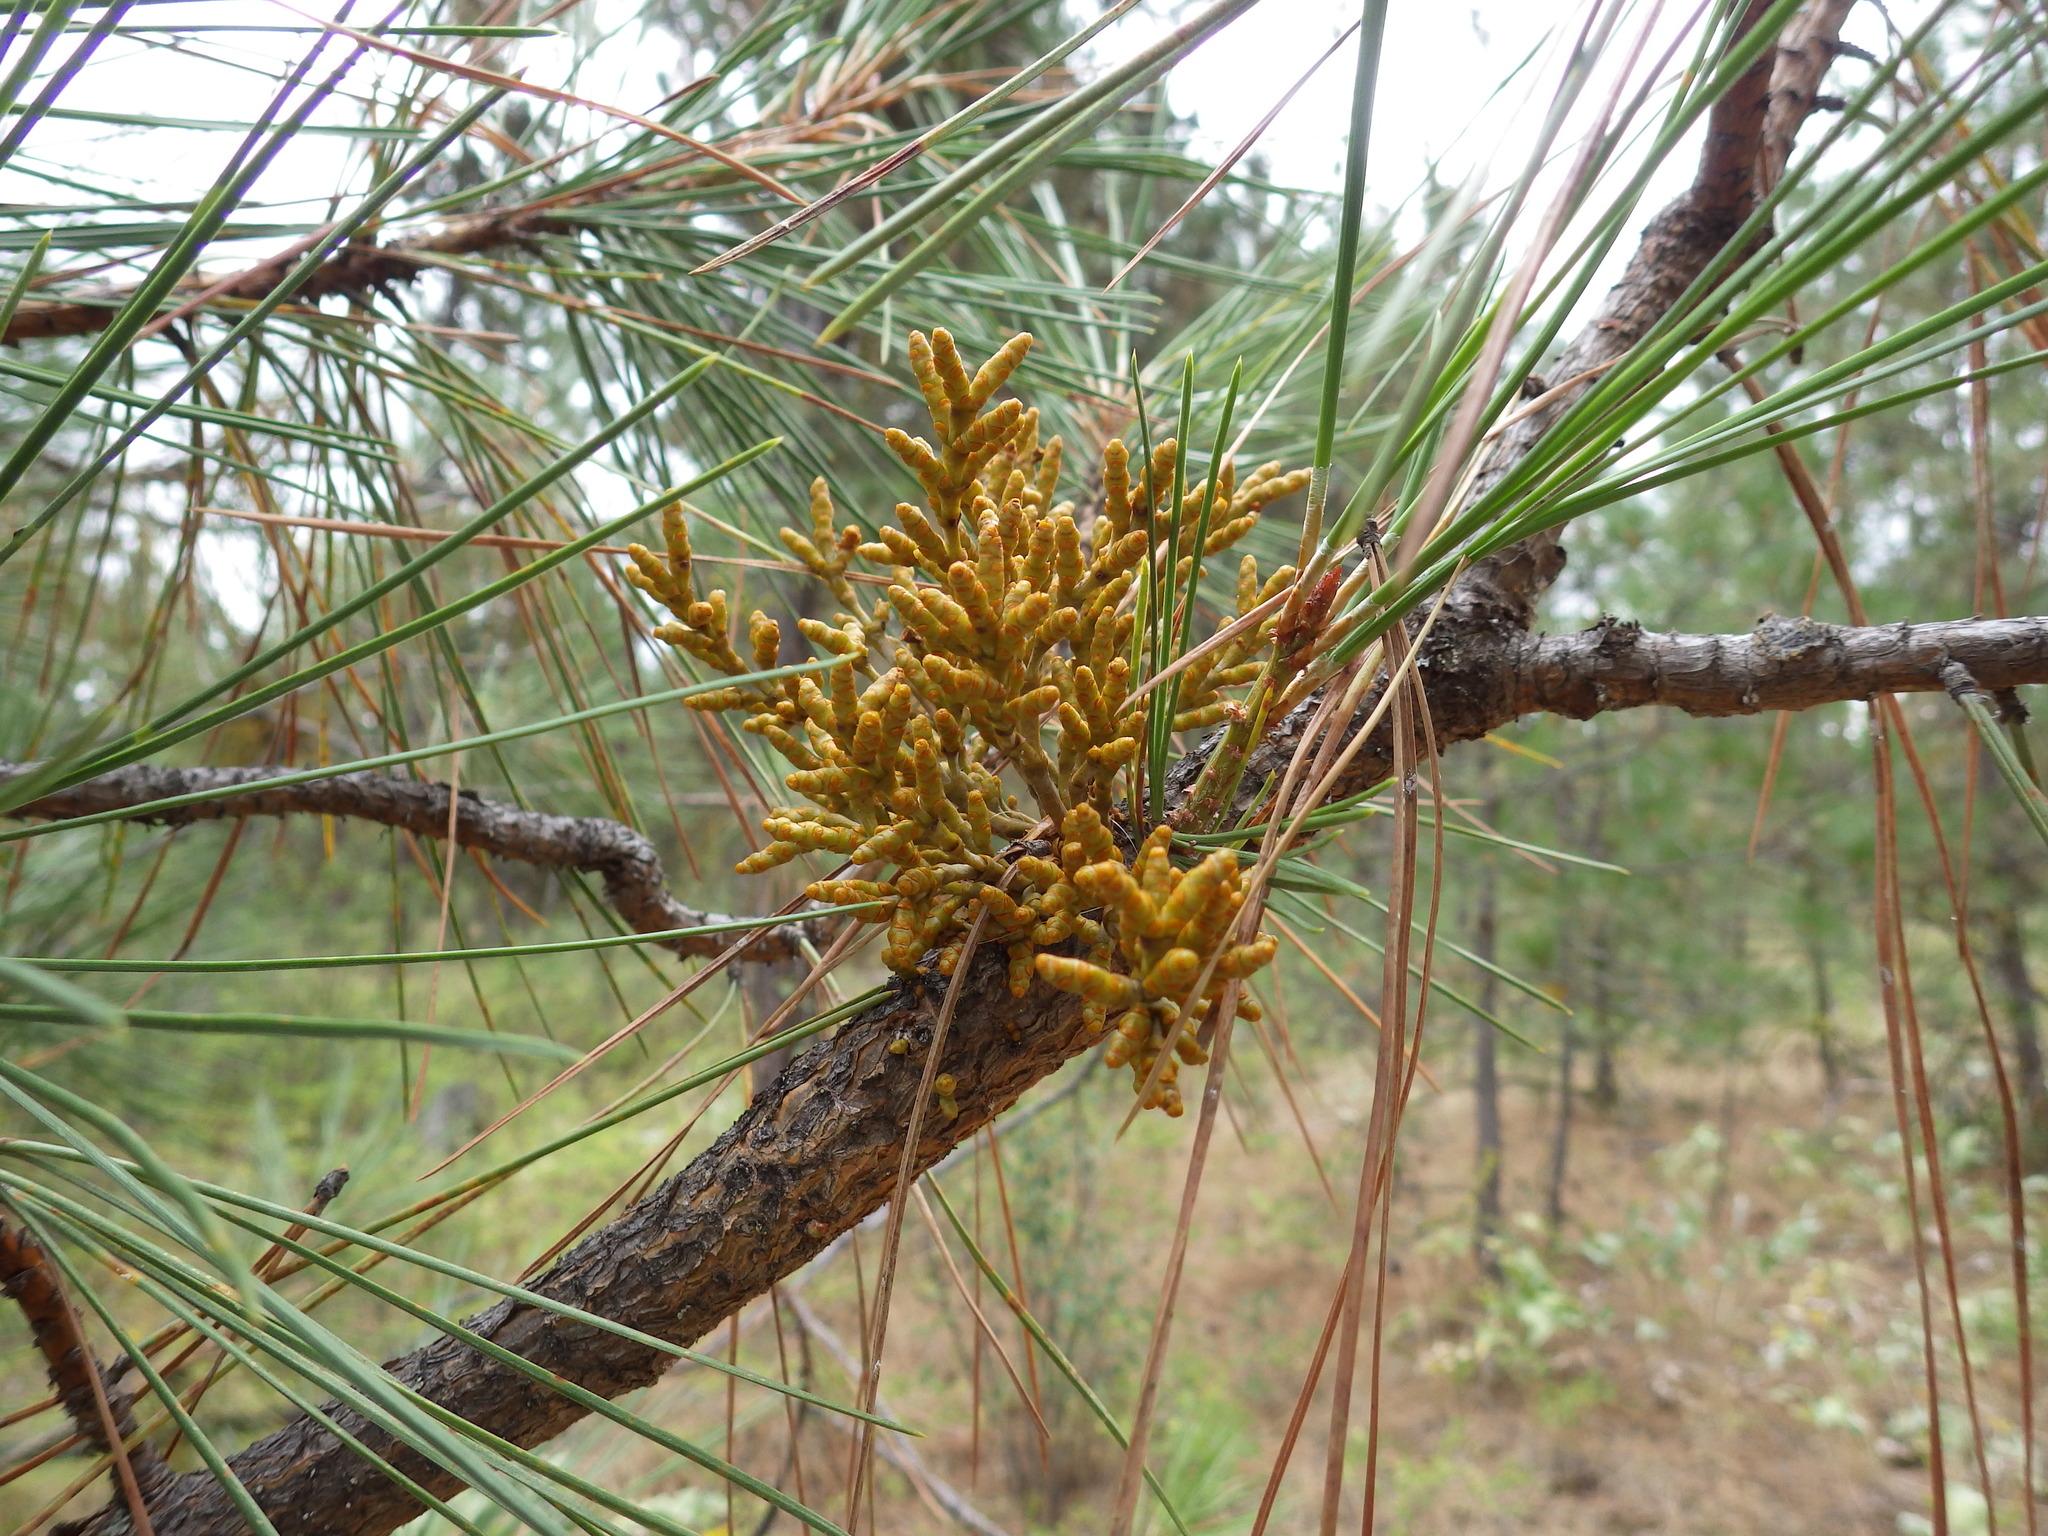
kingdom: Plantae
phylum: Tracheophyta
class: Magnoliopsida
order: Santalales
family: Viscaceae
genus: Arceuthobium
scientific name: Arceuthobium campylopodum
